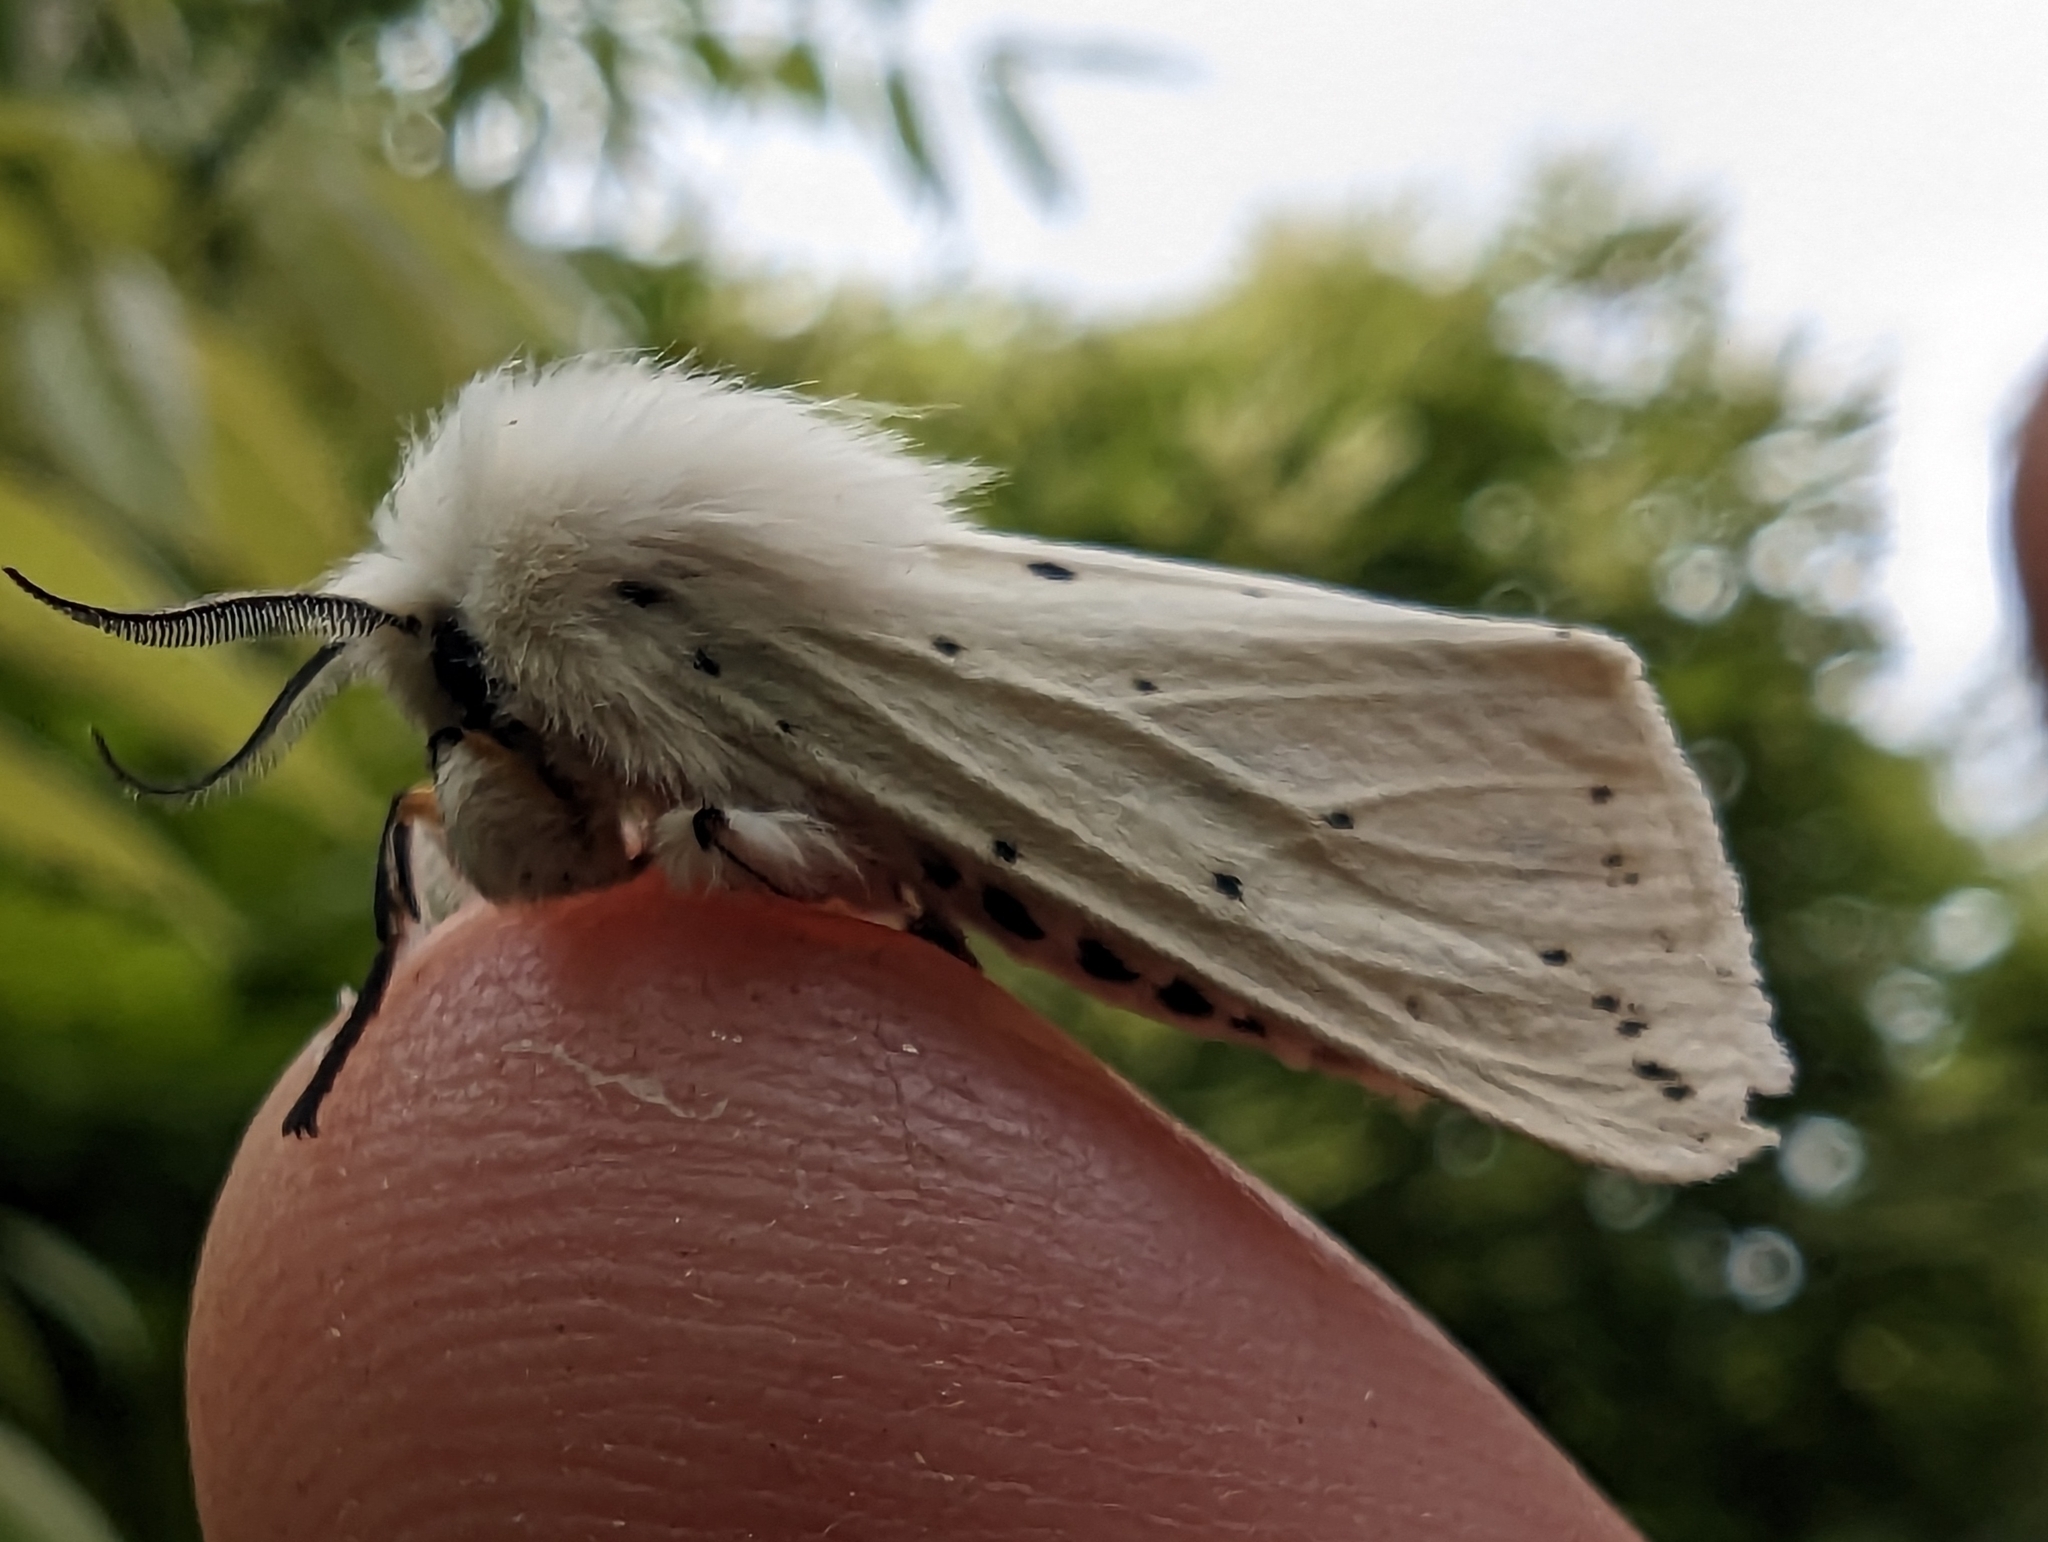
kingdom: Animalia
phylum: Arthropoda
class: Insecta
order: Lepidoptera
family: Erebidae
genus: Spilosoma
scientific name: Spilosoma lubricipeda
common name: White ermine
